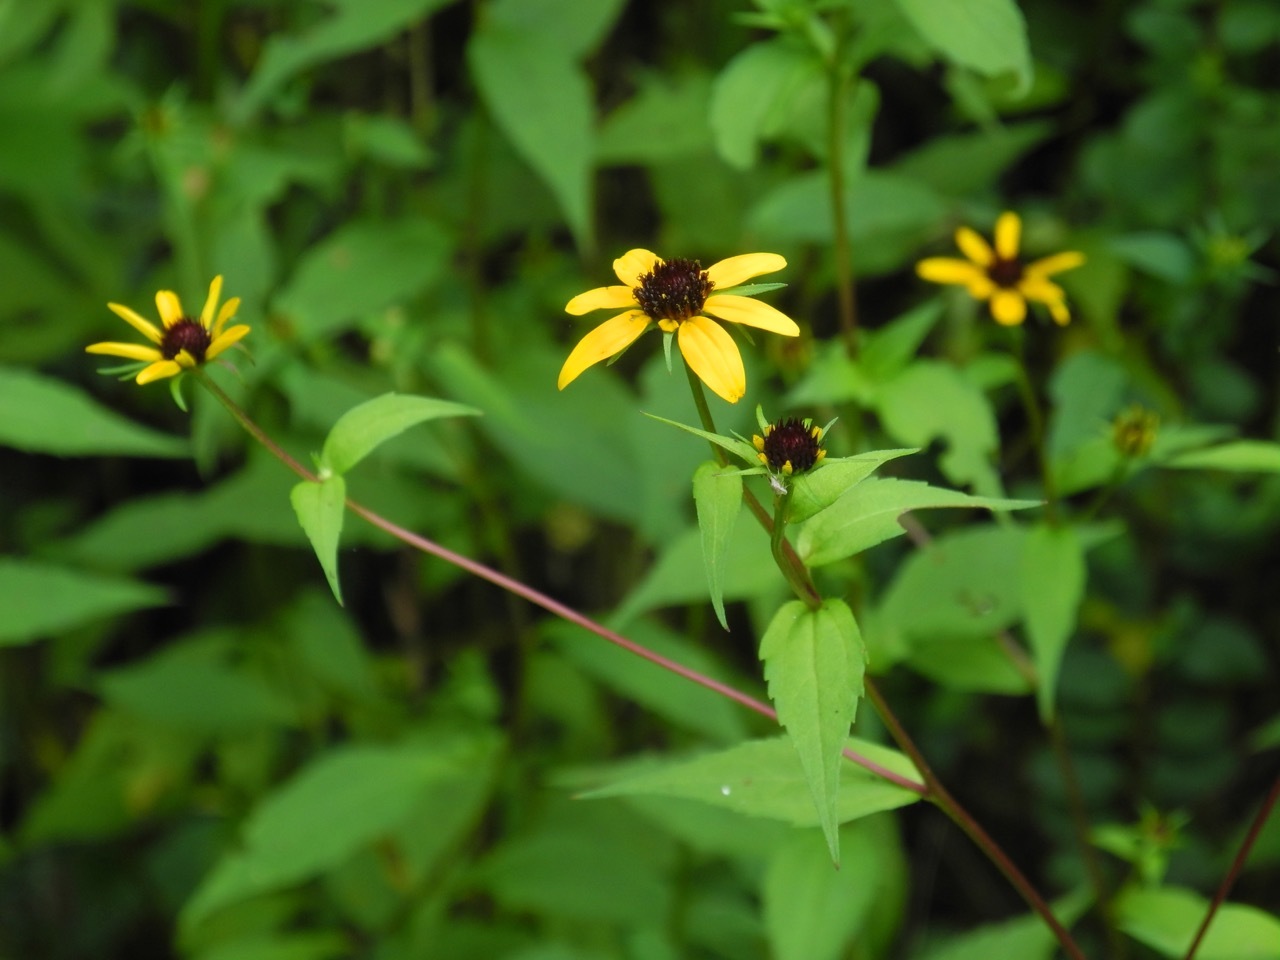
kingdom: Plantae
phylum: Tracheophyta
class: Magnoliopsida
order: Asterales
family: Asteraceae
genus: Rudbeckia
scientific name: Rudbeckia triloba
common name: Thin-leaved coneflower
